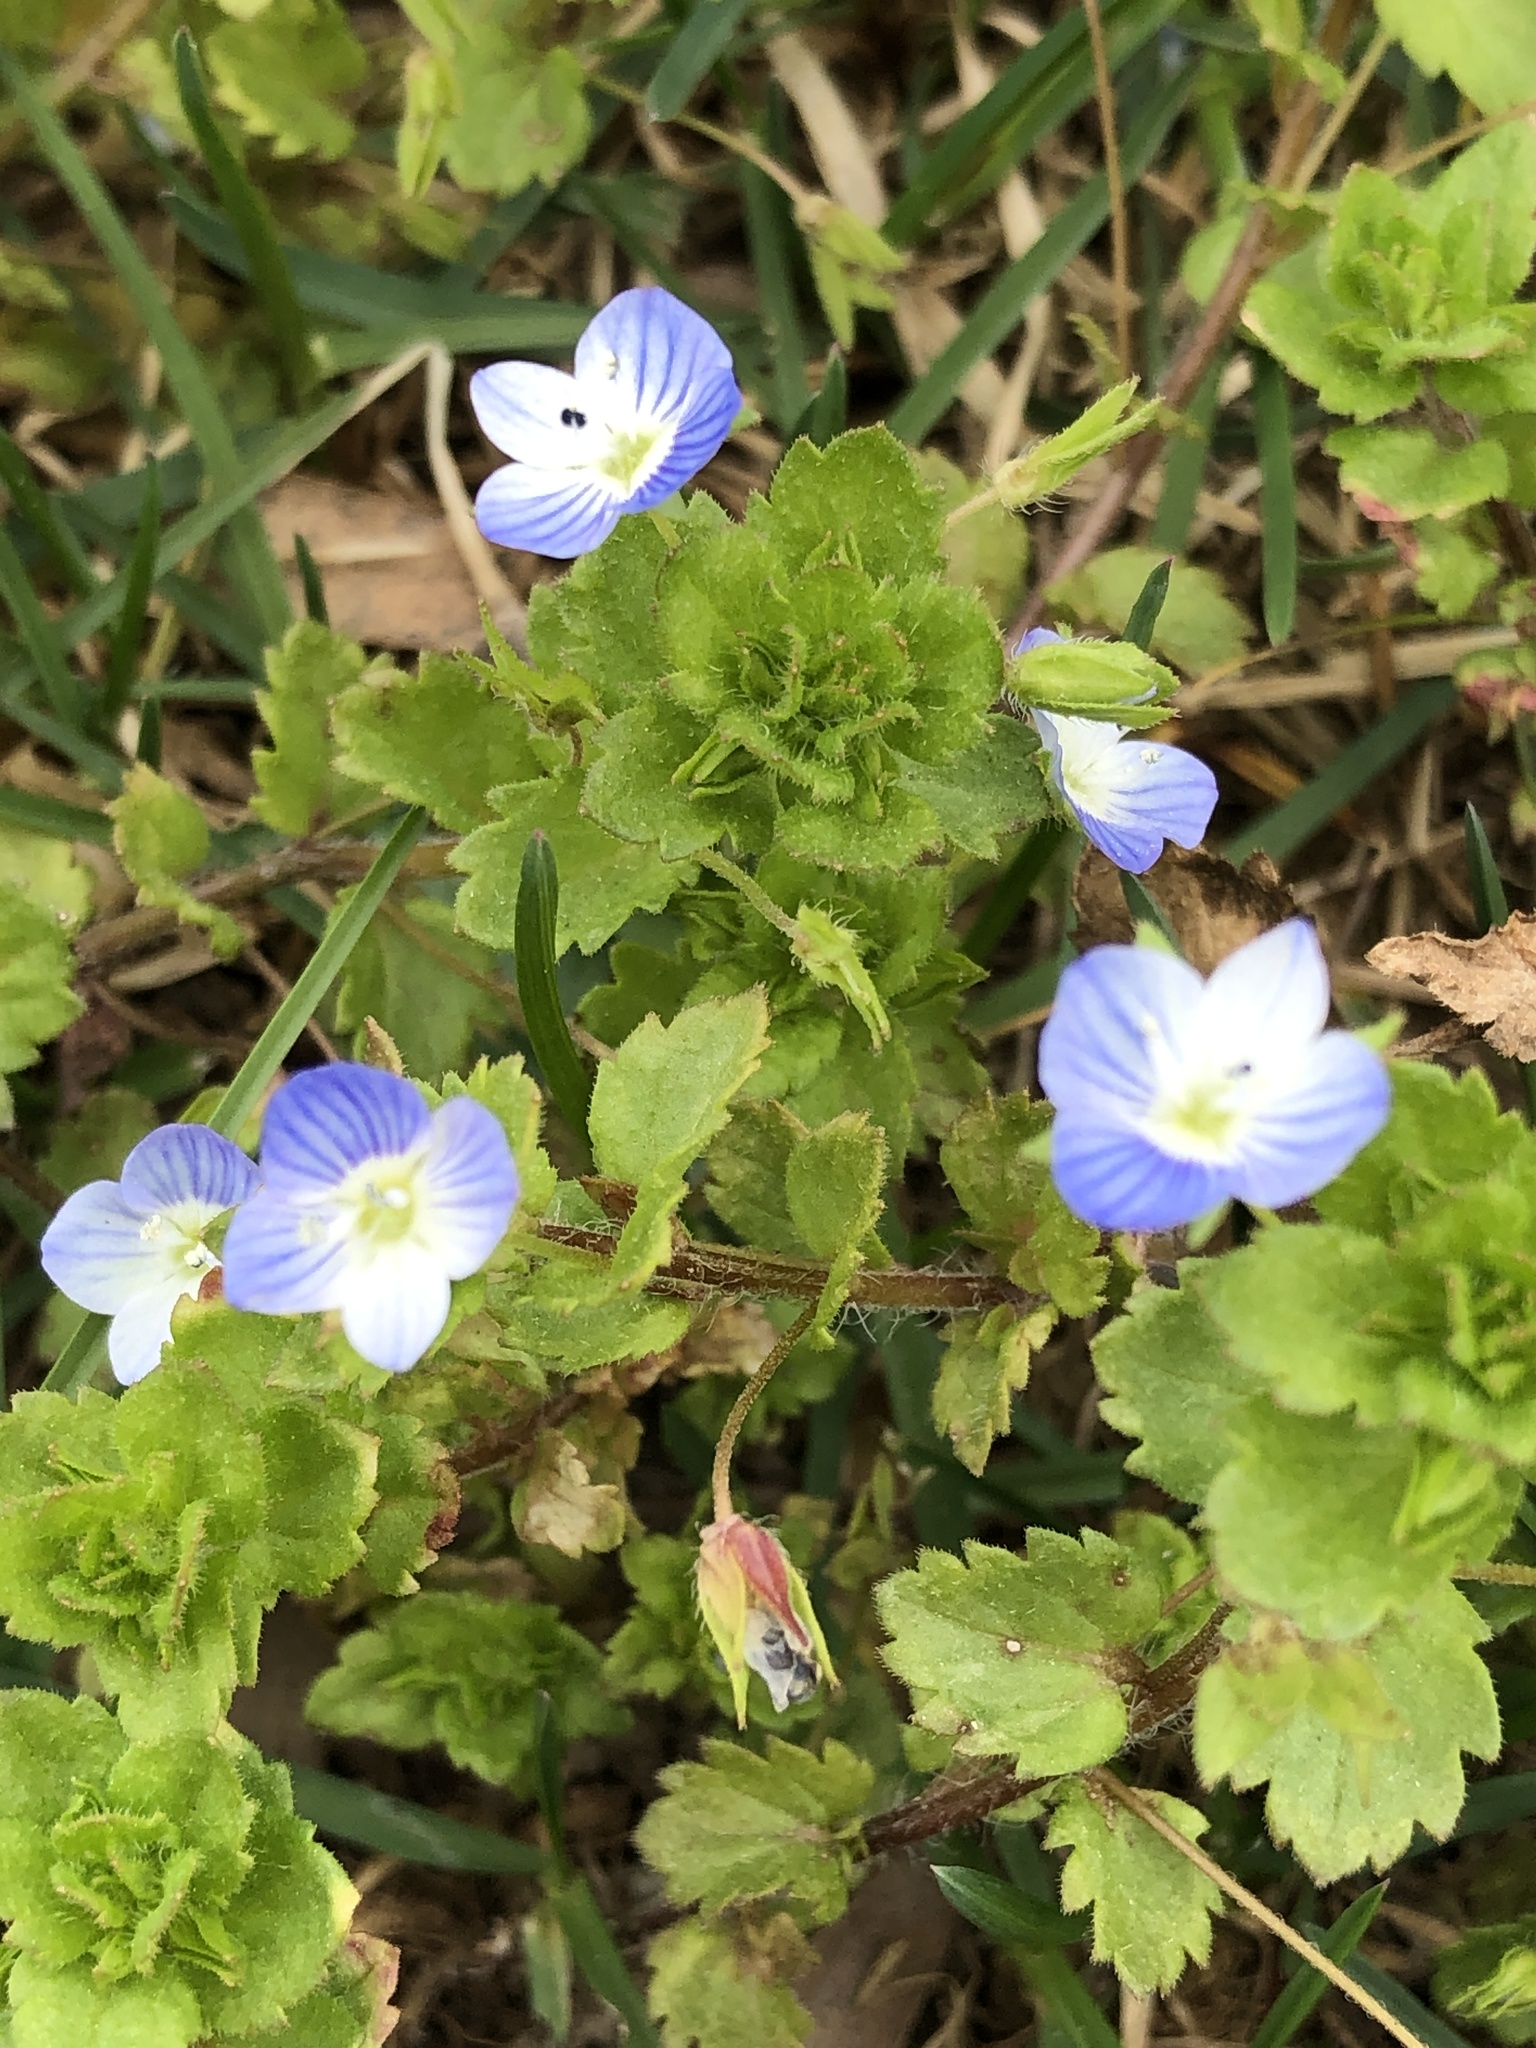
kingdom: Plantae
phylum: Tracheophyta
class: Magnoliopsida
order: Lamiales
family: Plantaginaceae
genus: Veronica
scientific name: Veronica persica
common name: Common field-speedwell
